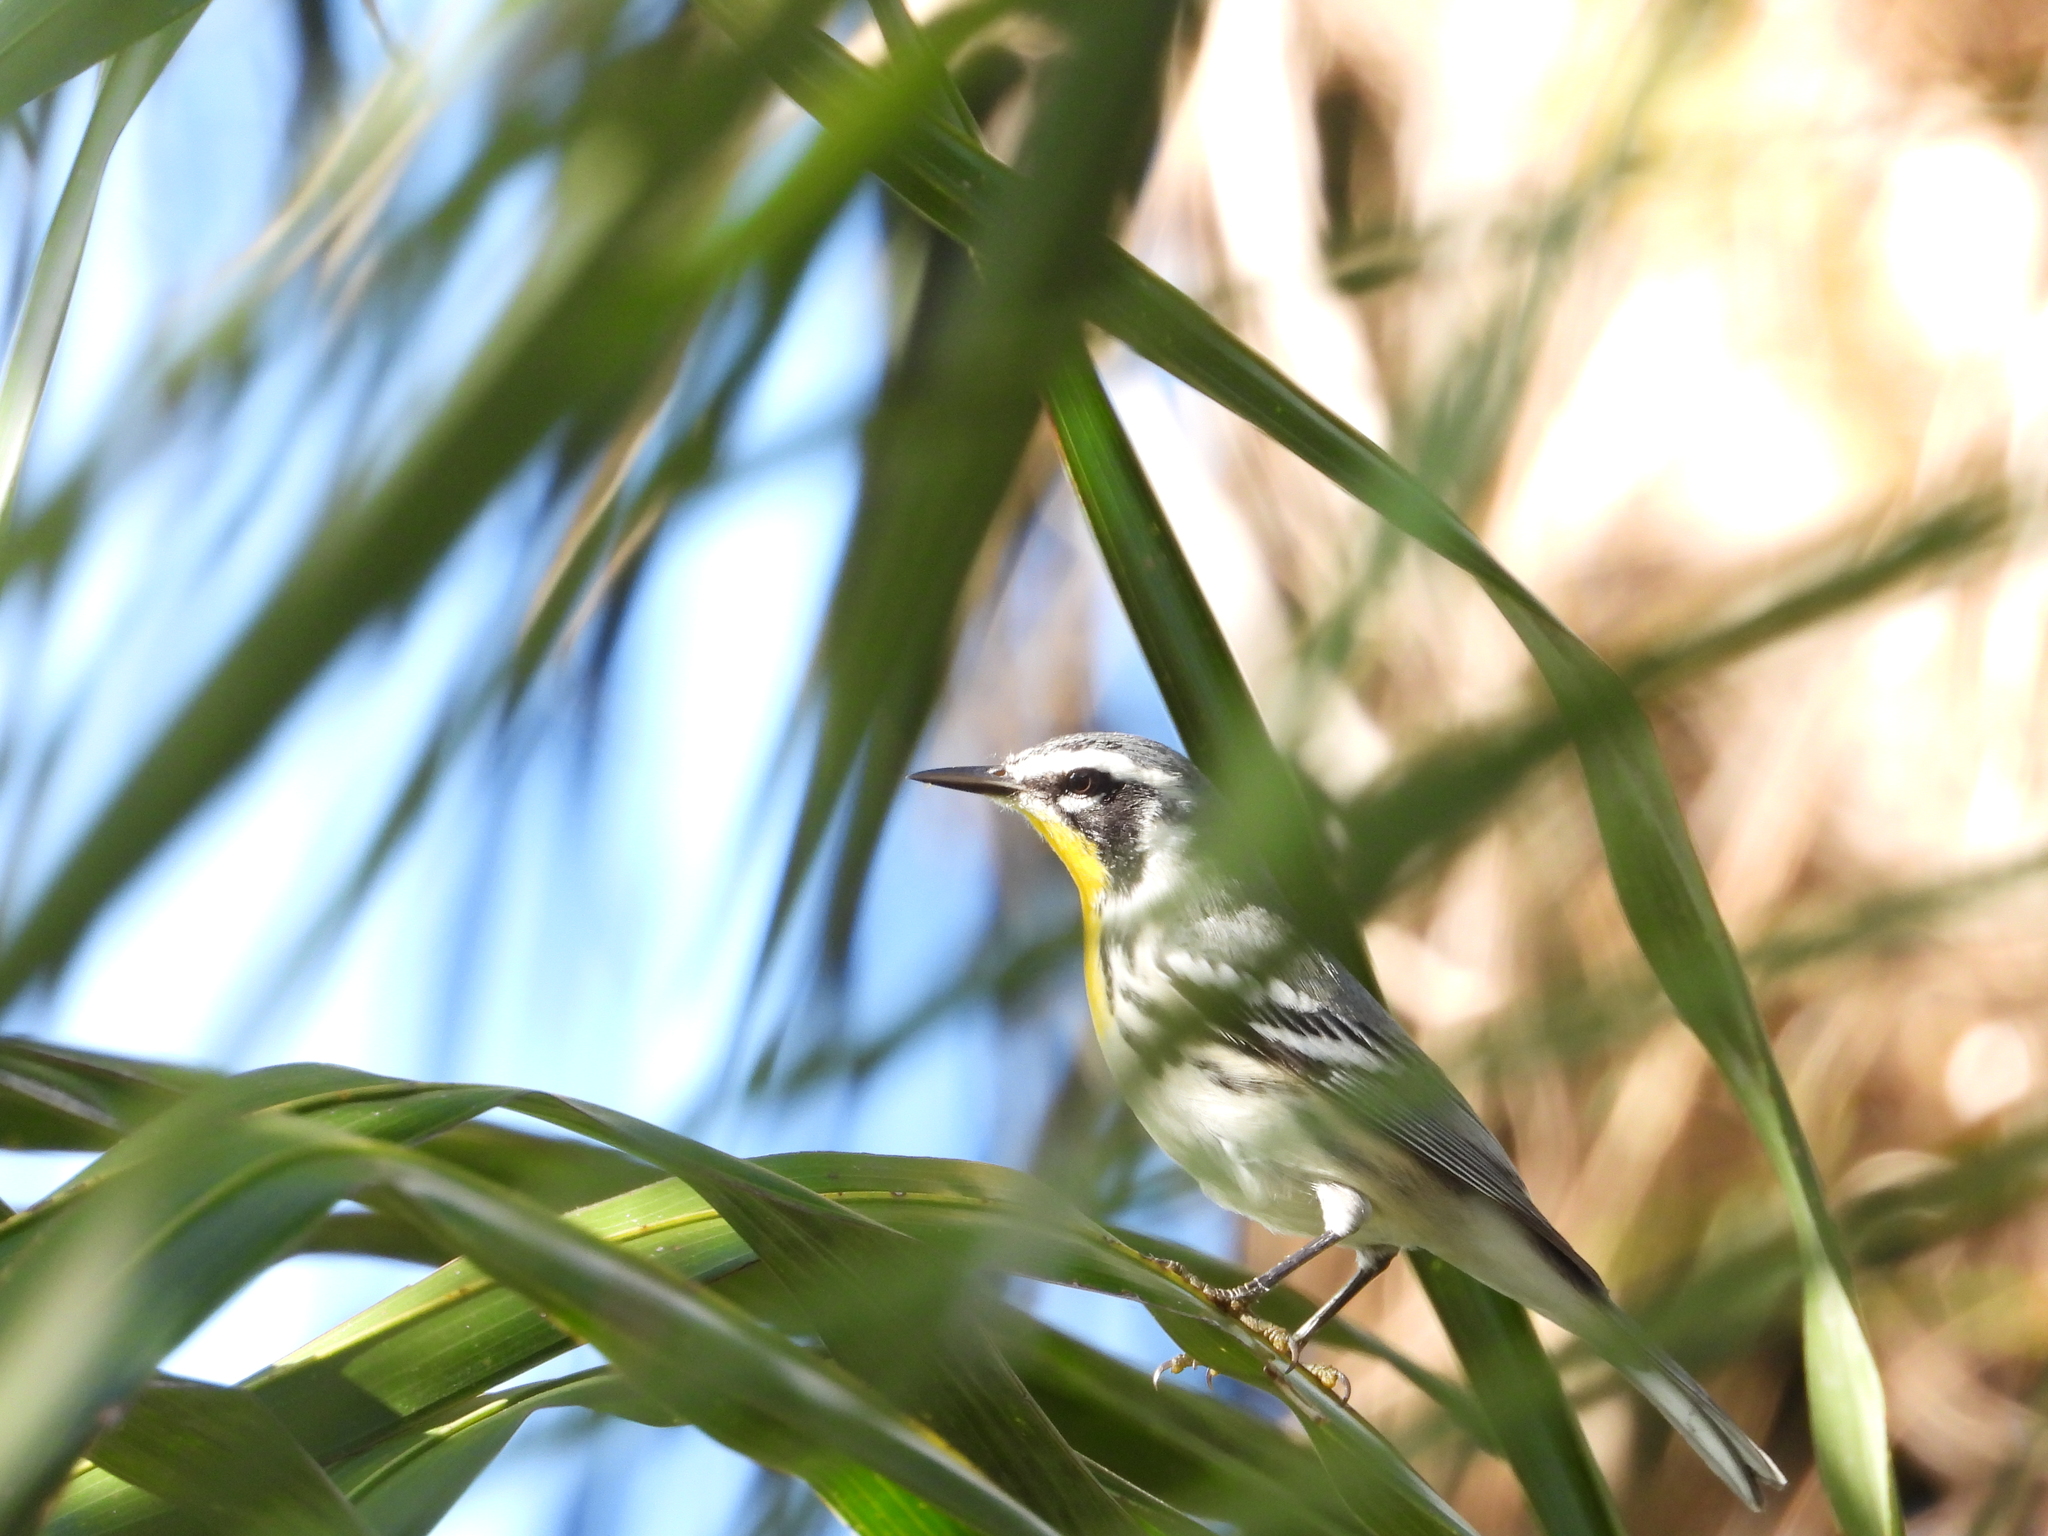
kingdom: Animalia
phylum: Chordata
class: Aves
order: Passeriformes
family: Parulidae
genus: Setophaga
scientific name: Setophaga dominica
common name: Yellow-throated warbler
